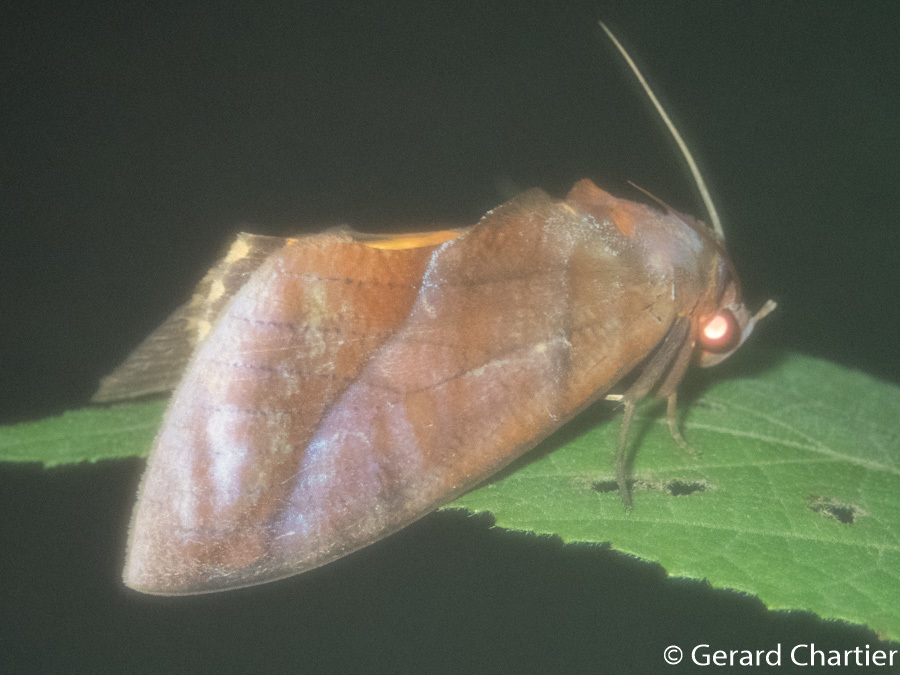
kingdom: Animalia
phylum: Arthropoda
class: Insecta
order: Lepidoptera
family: Erebidae
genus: Eudocima
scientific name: Eudocima homaena
